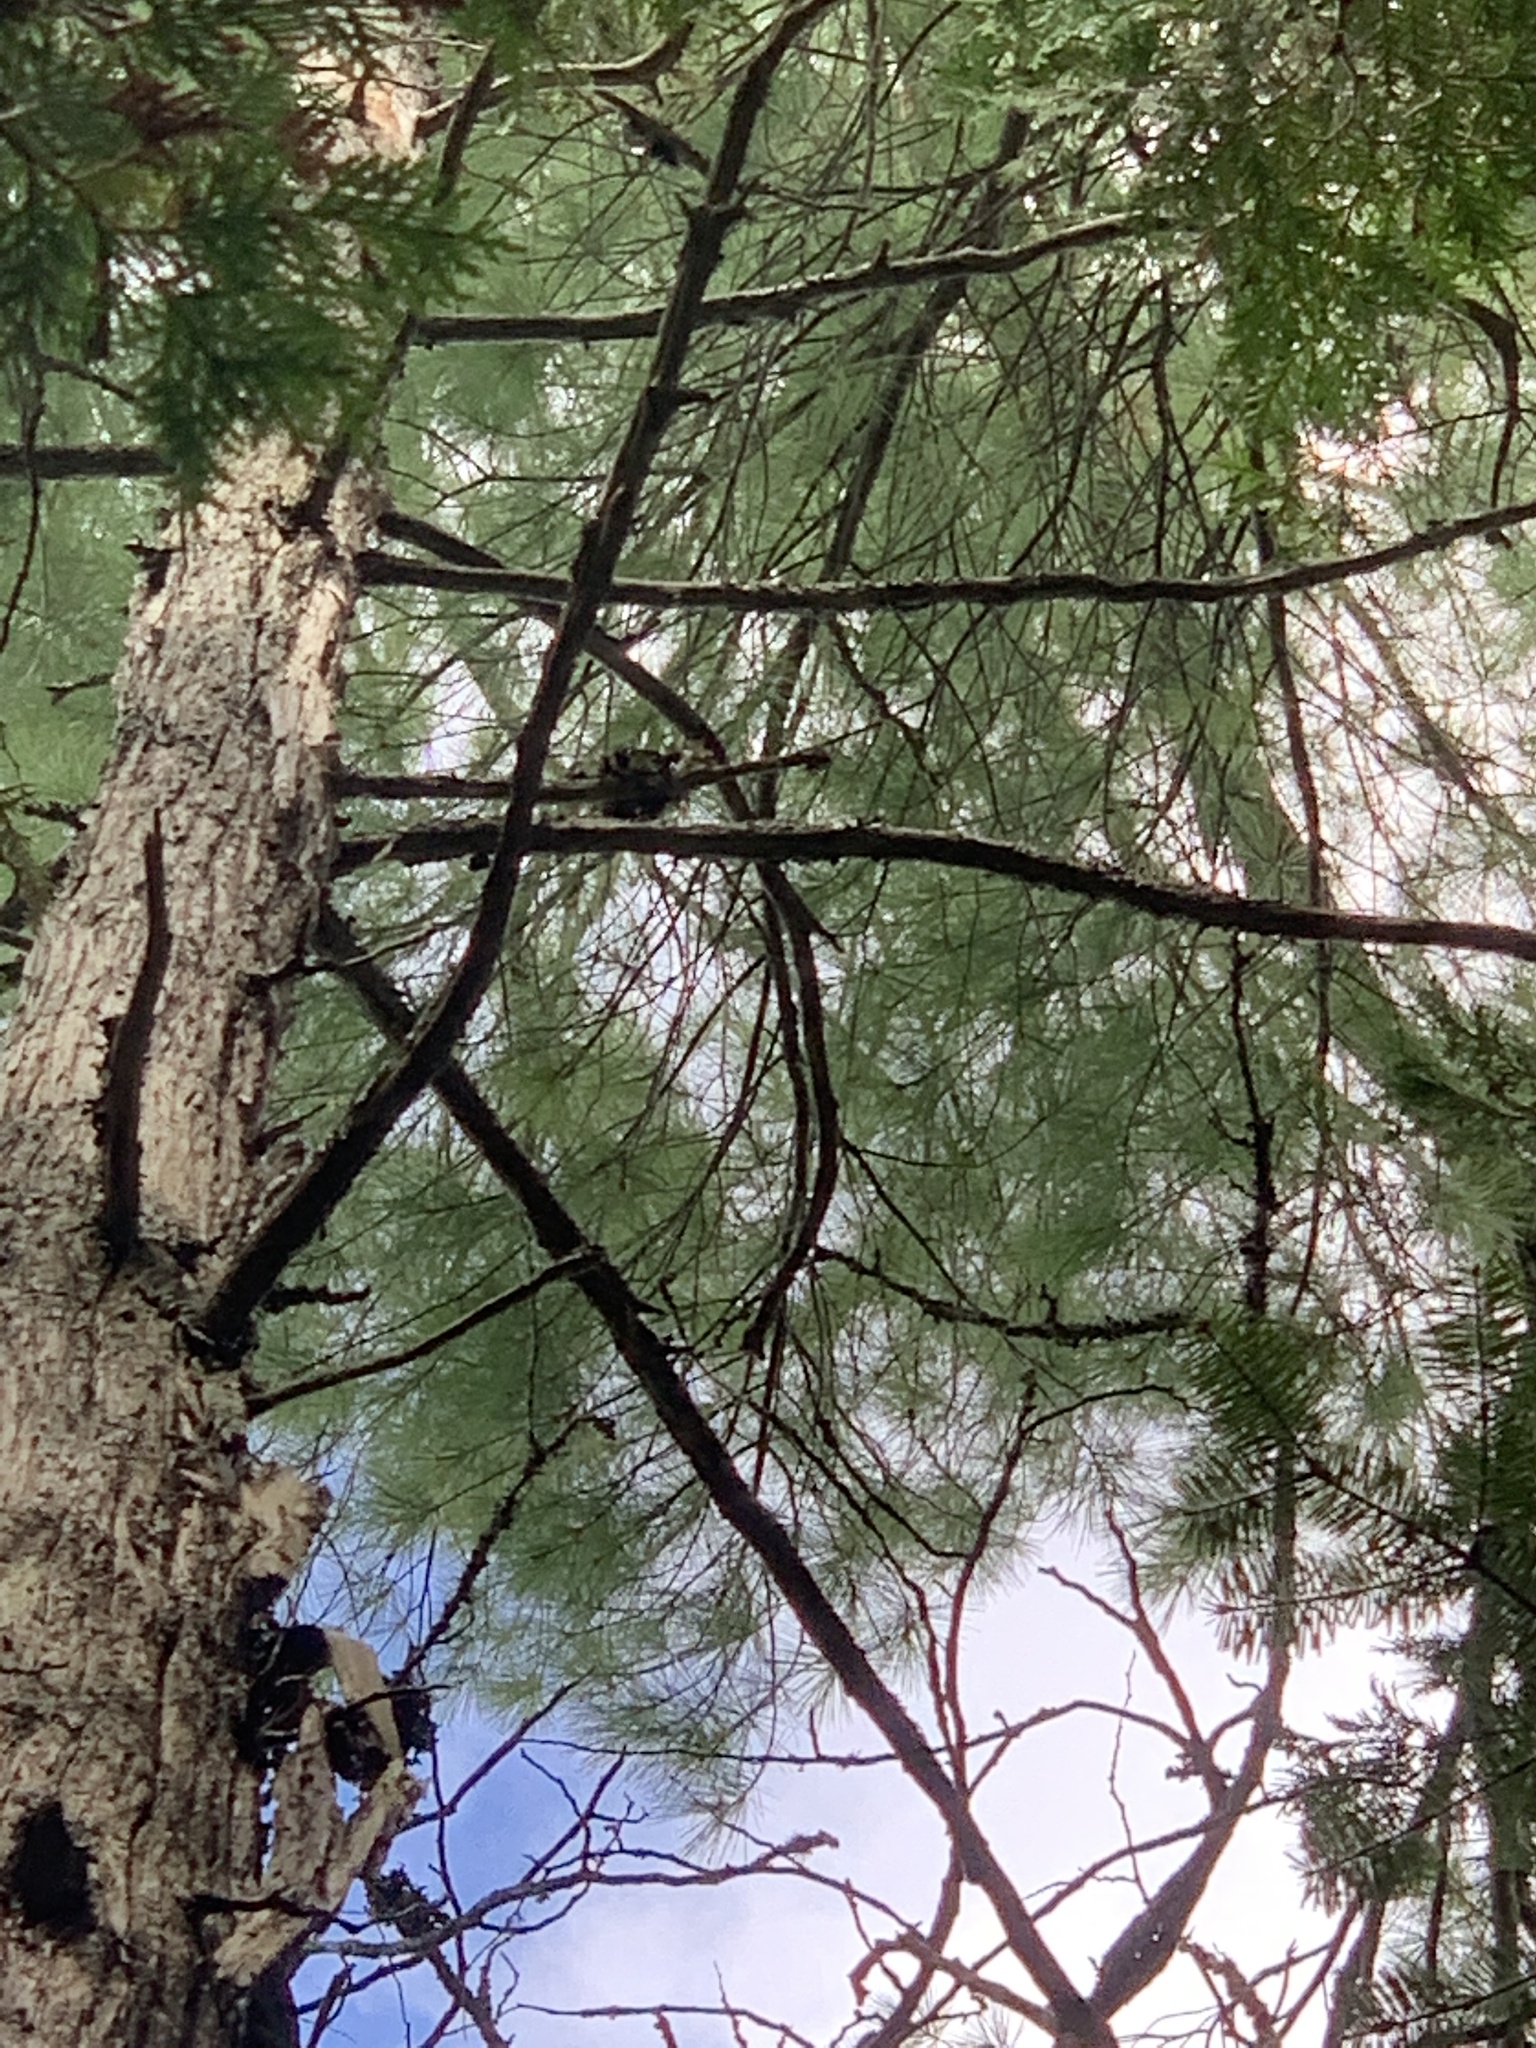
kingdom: Plantae
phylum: Tracheophyta
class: Pinopsida
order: Pinales
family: Pinaceae
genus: Pinus
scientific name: Pinus strobus
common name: Weymouth pine
